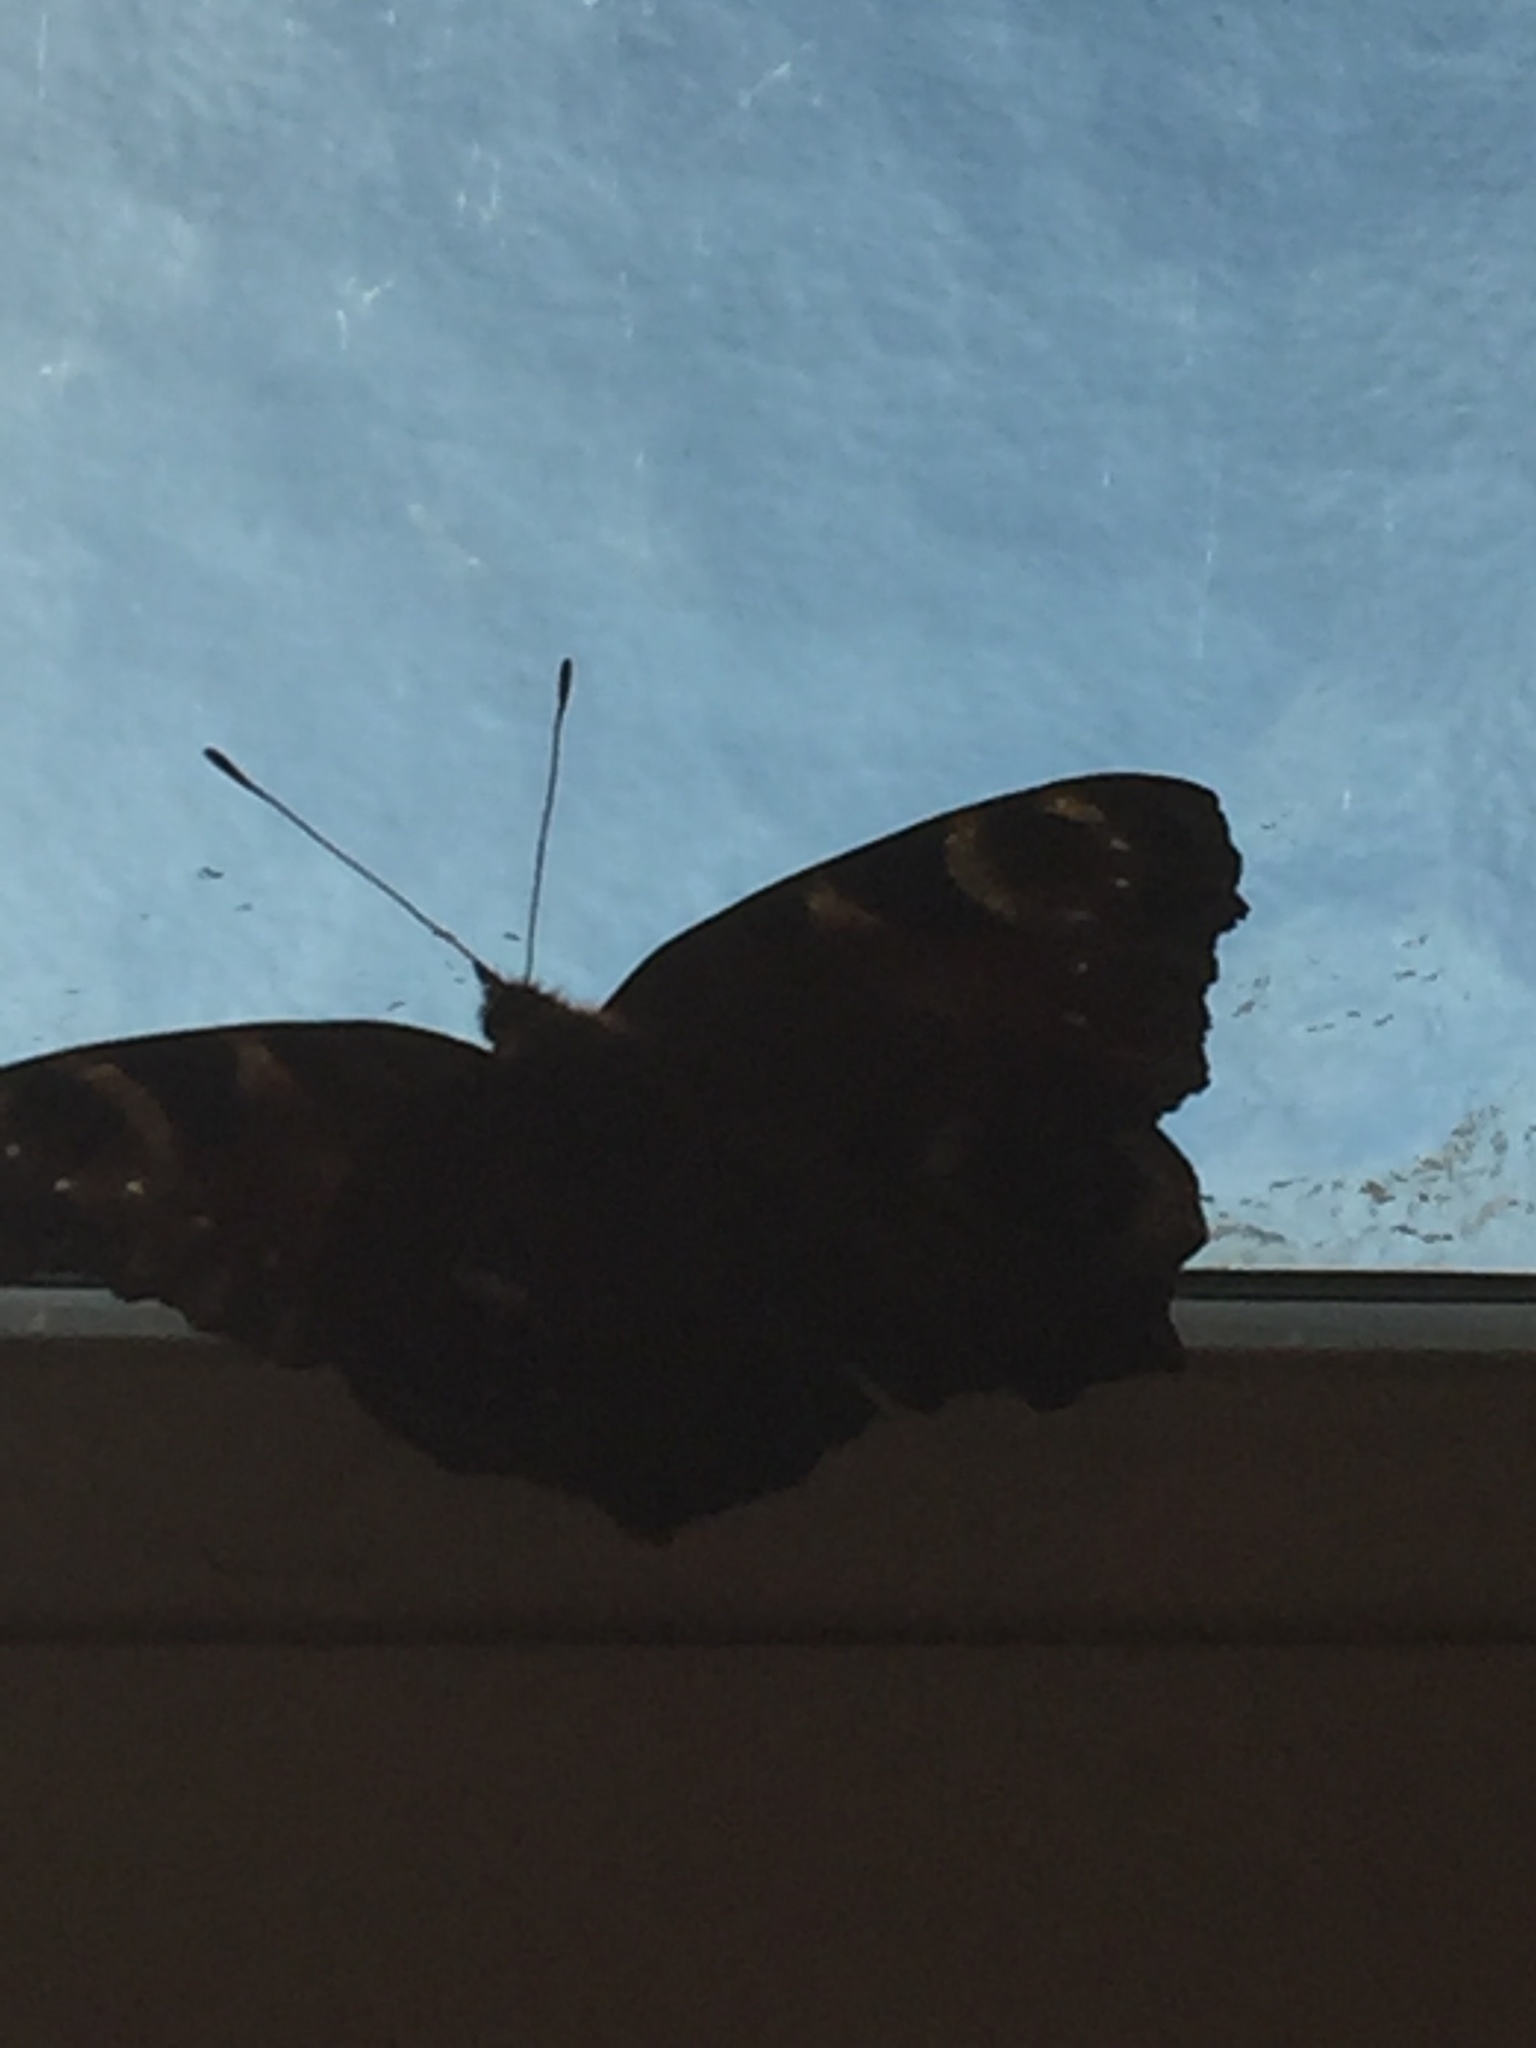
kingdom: Animalia
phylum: Arthropoda
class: Insecta
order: Lepidoptera
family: Nymphalidae
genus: Aglais
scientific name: Aglais io
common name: Peacock
